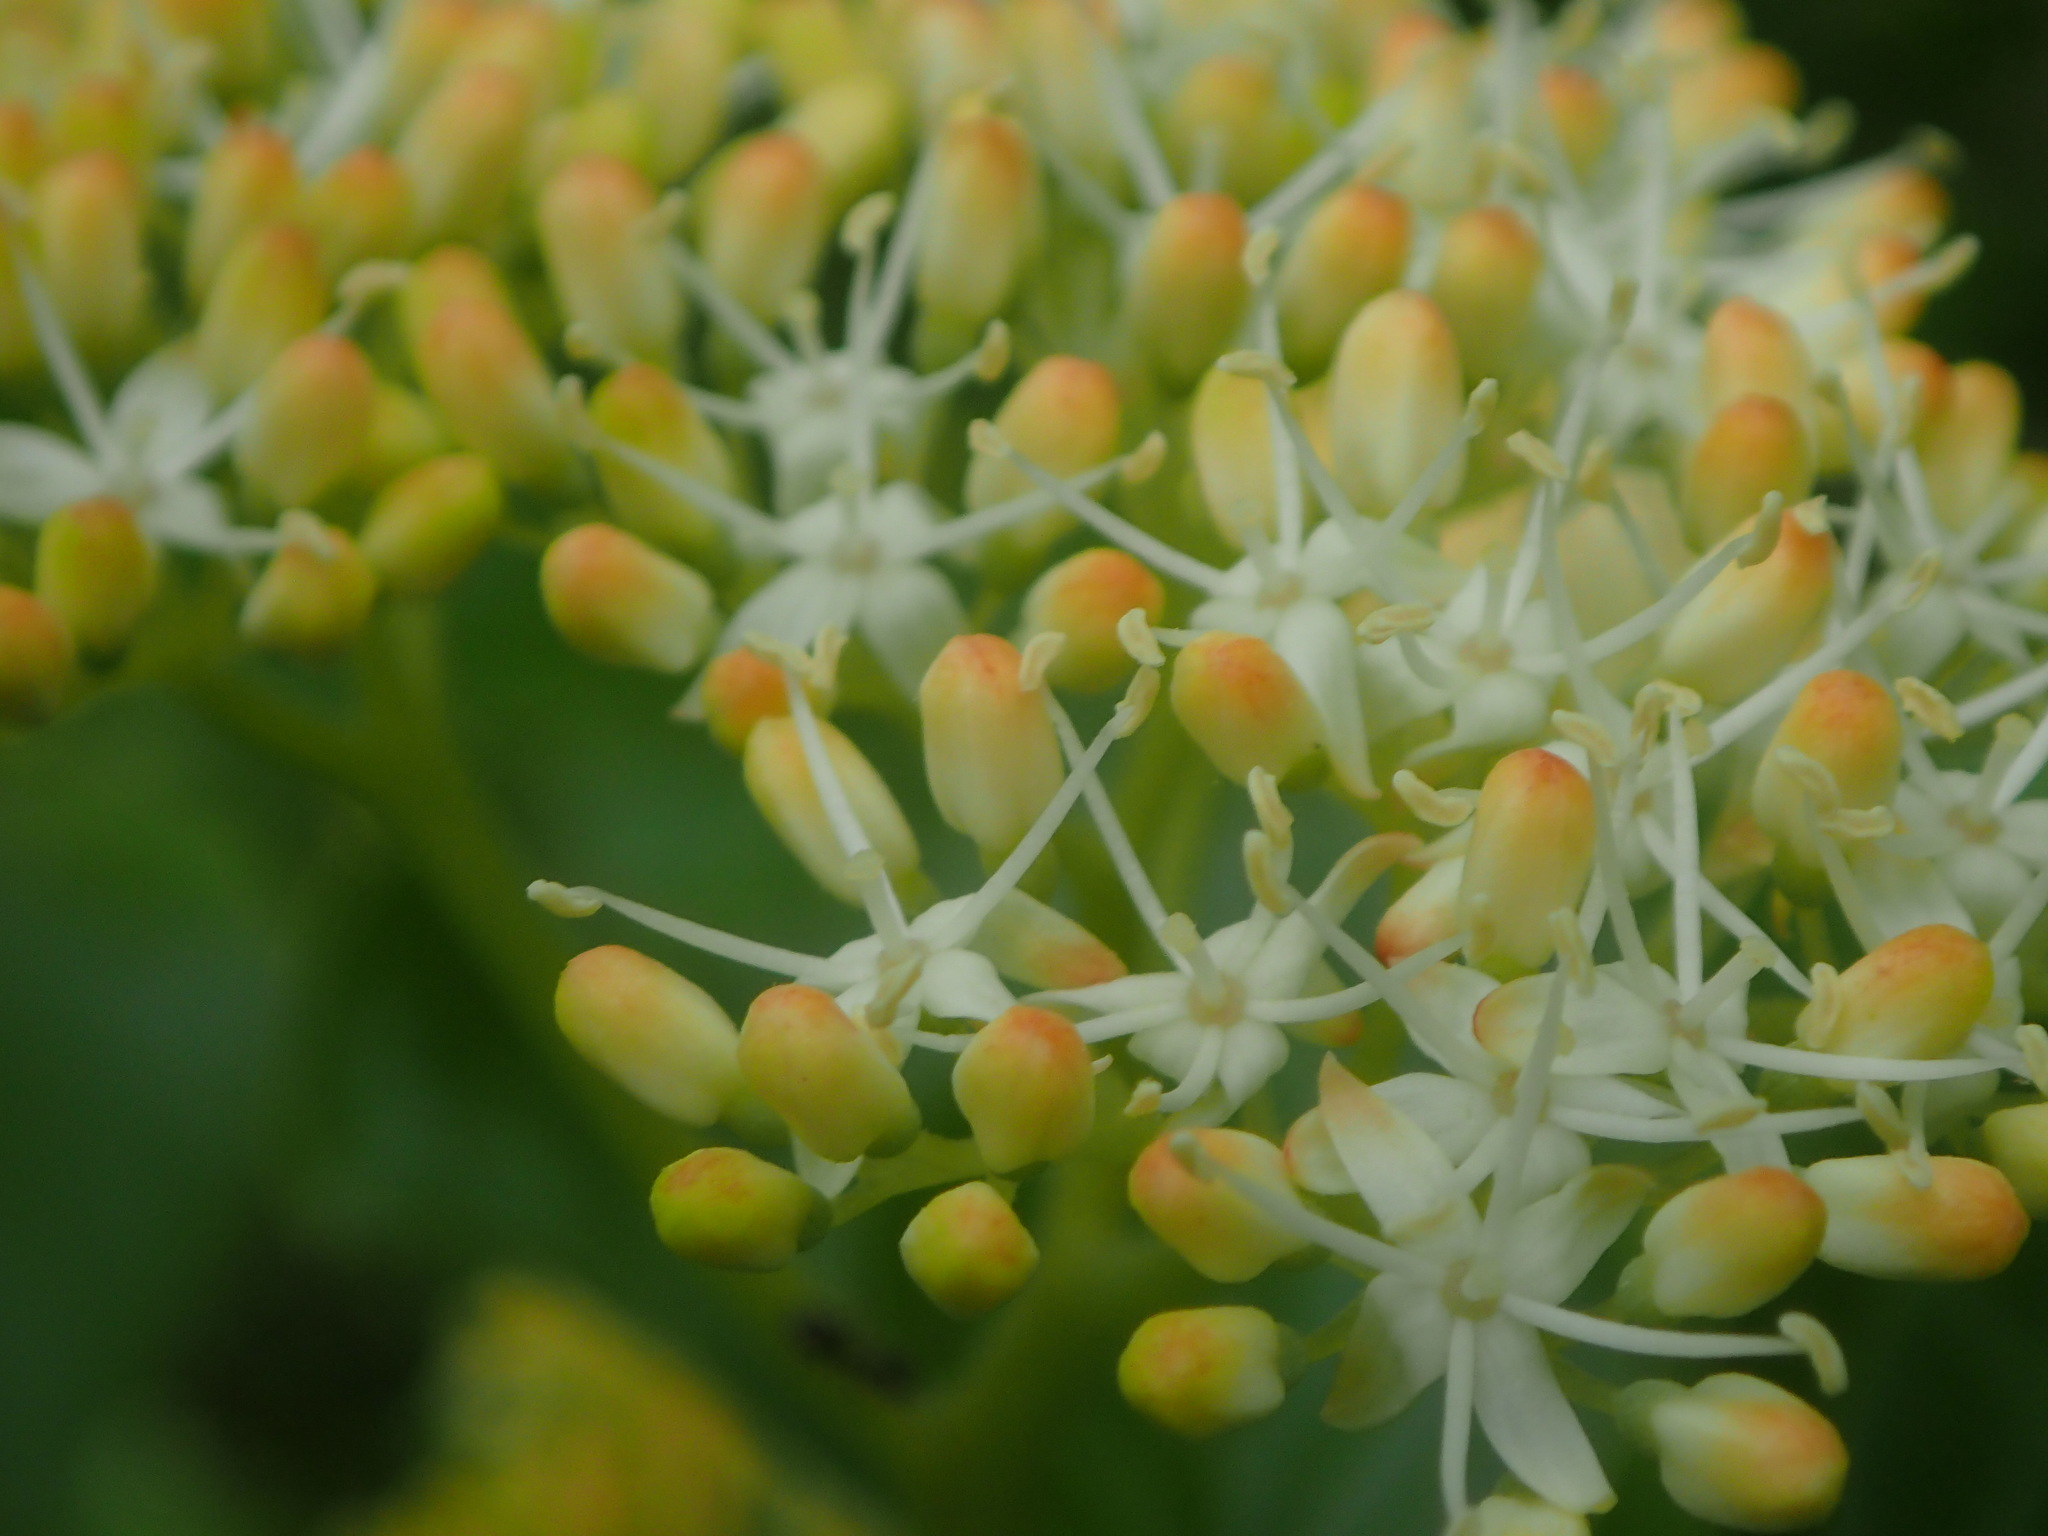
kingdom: Plantae
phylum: Tracheophyta
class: Magnoliopsida
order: Cornales
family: Cornaceae
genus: Cornus
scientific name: Cornus alternifolia
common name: Pagoda dogwood
